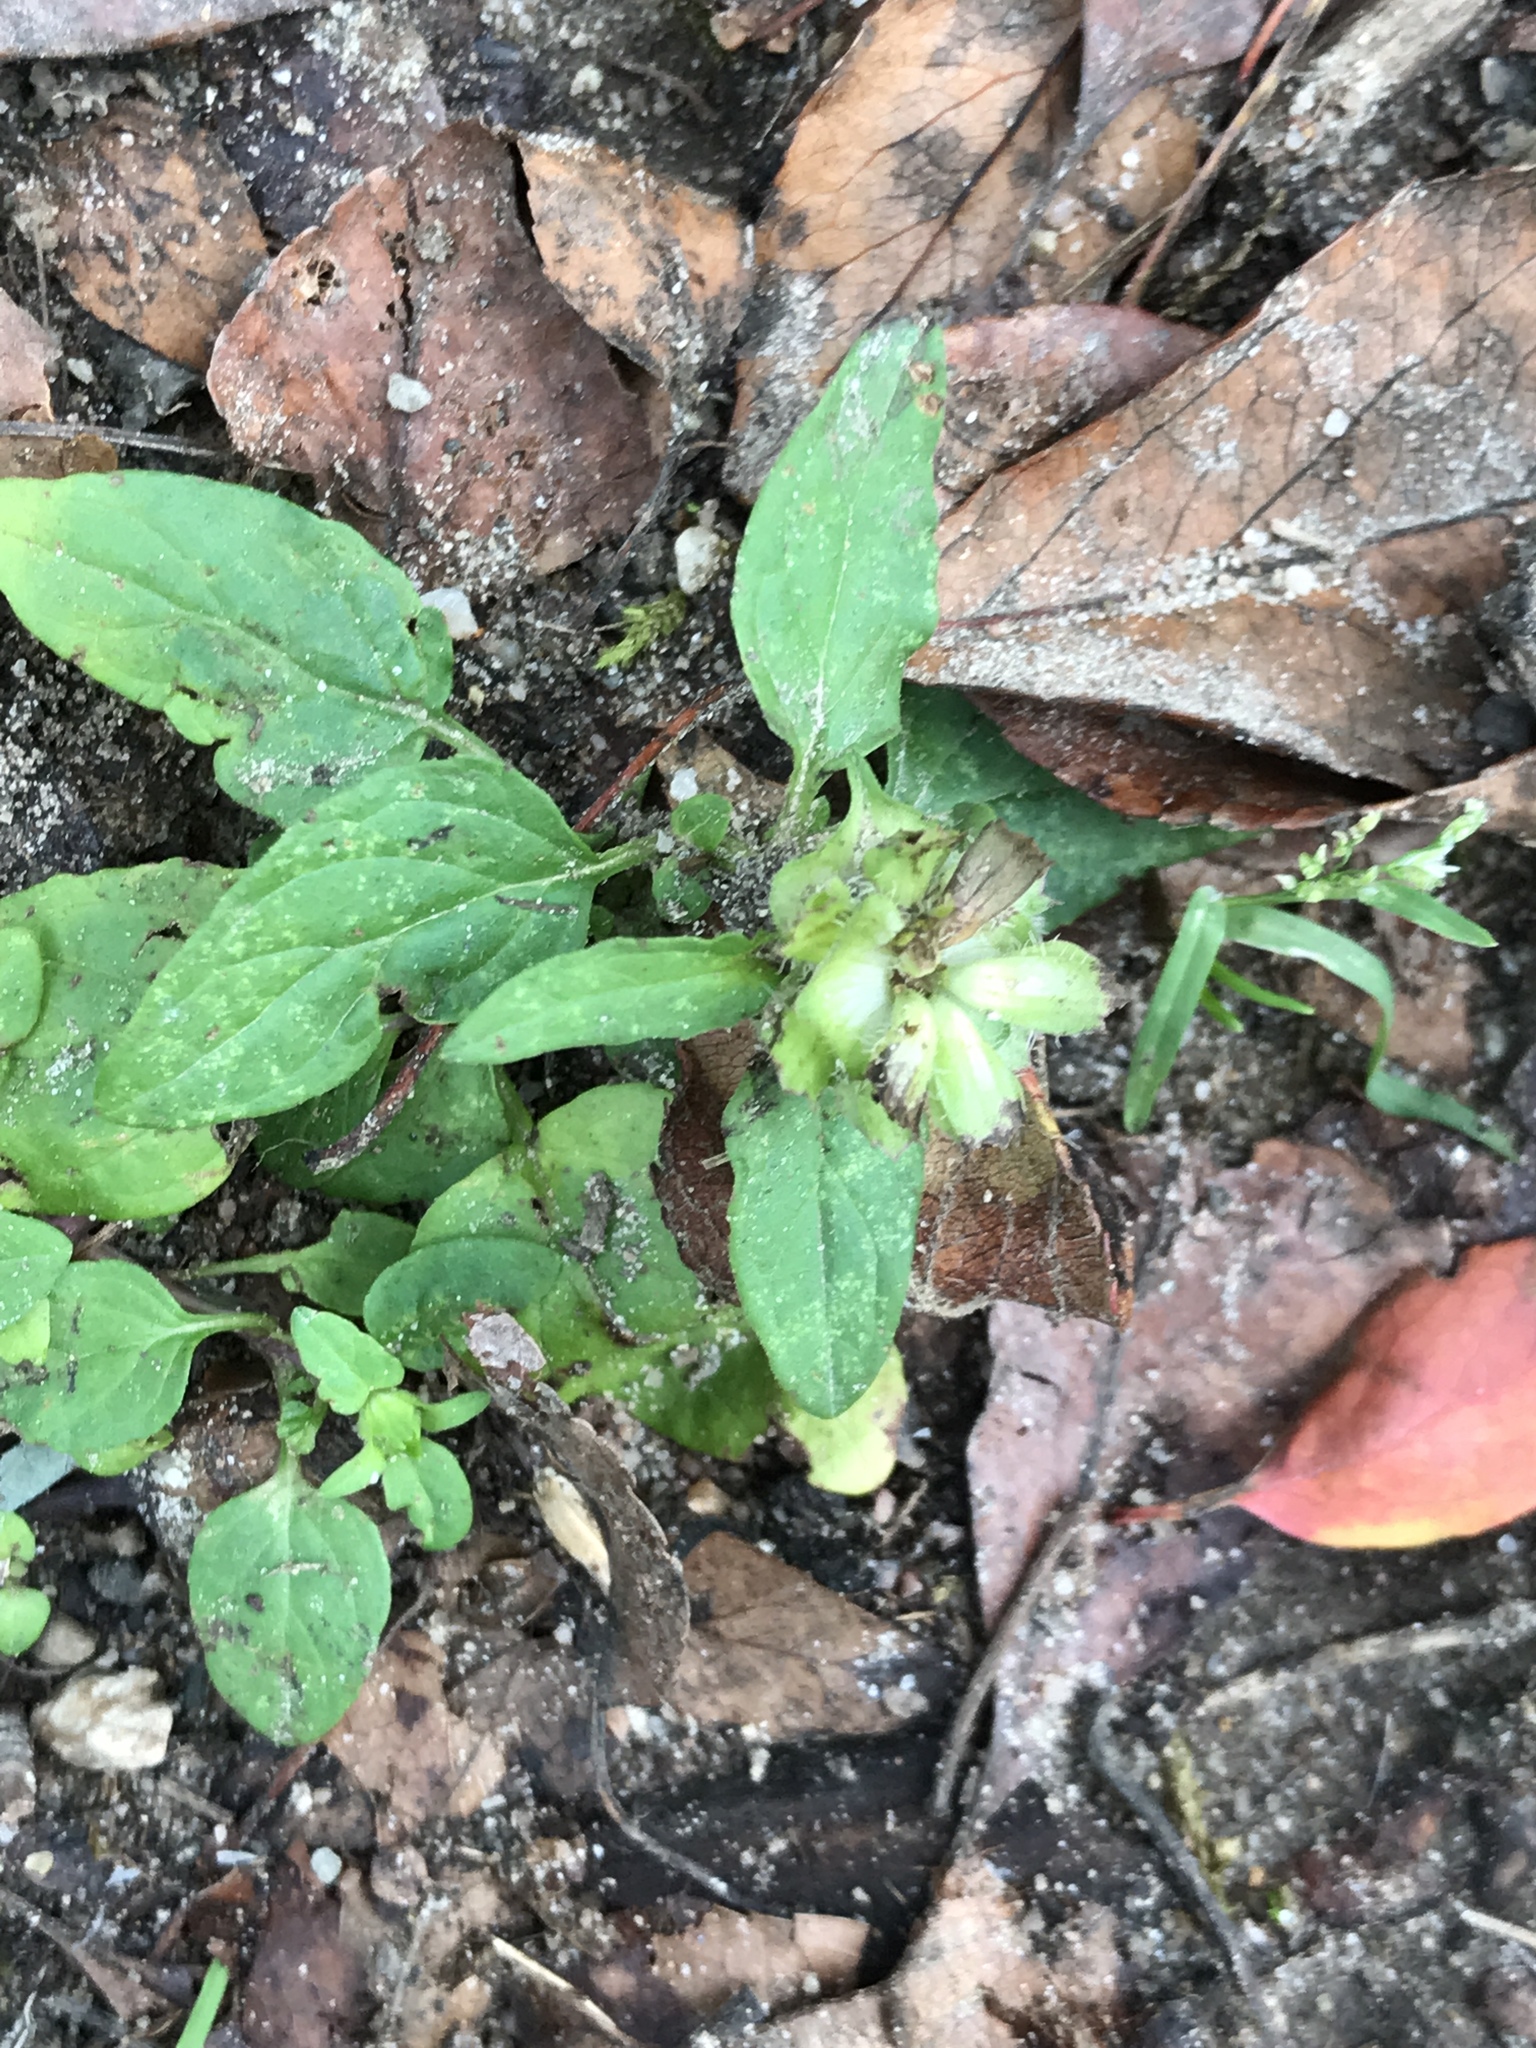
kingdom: Plantae
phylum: Tracheophyta
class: Magnoliopsida
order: Lamiales
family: Lamiaceae
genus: Prunella
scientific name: Prunella vulgaris
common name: Heal-all
